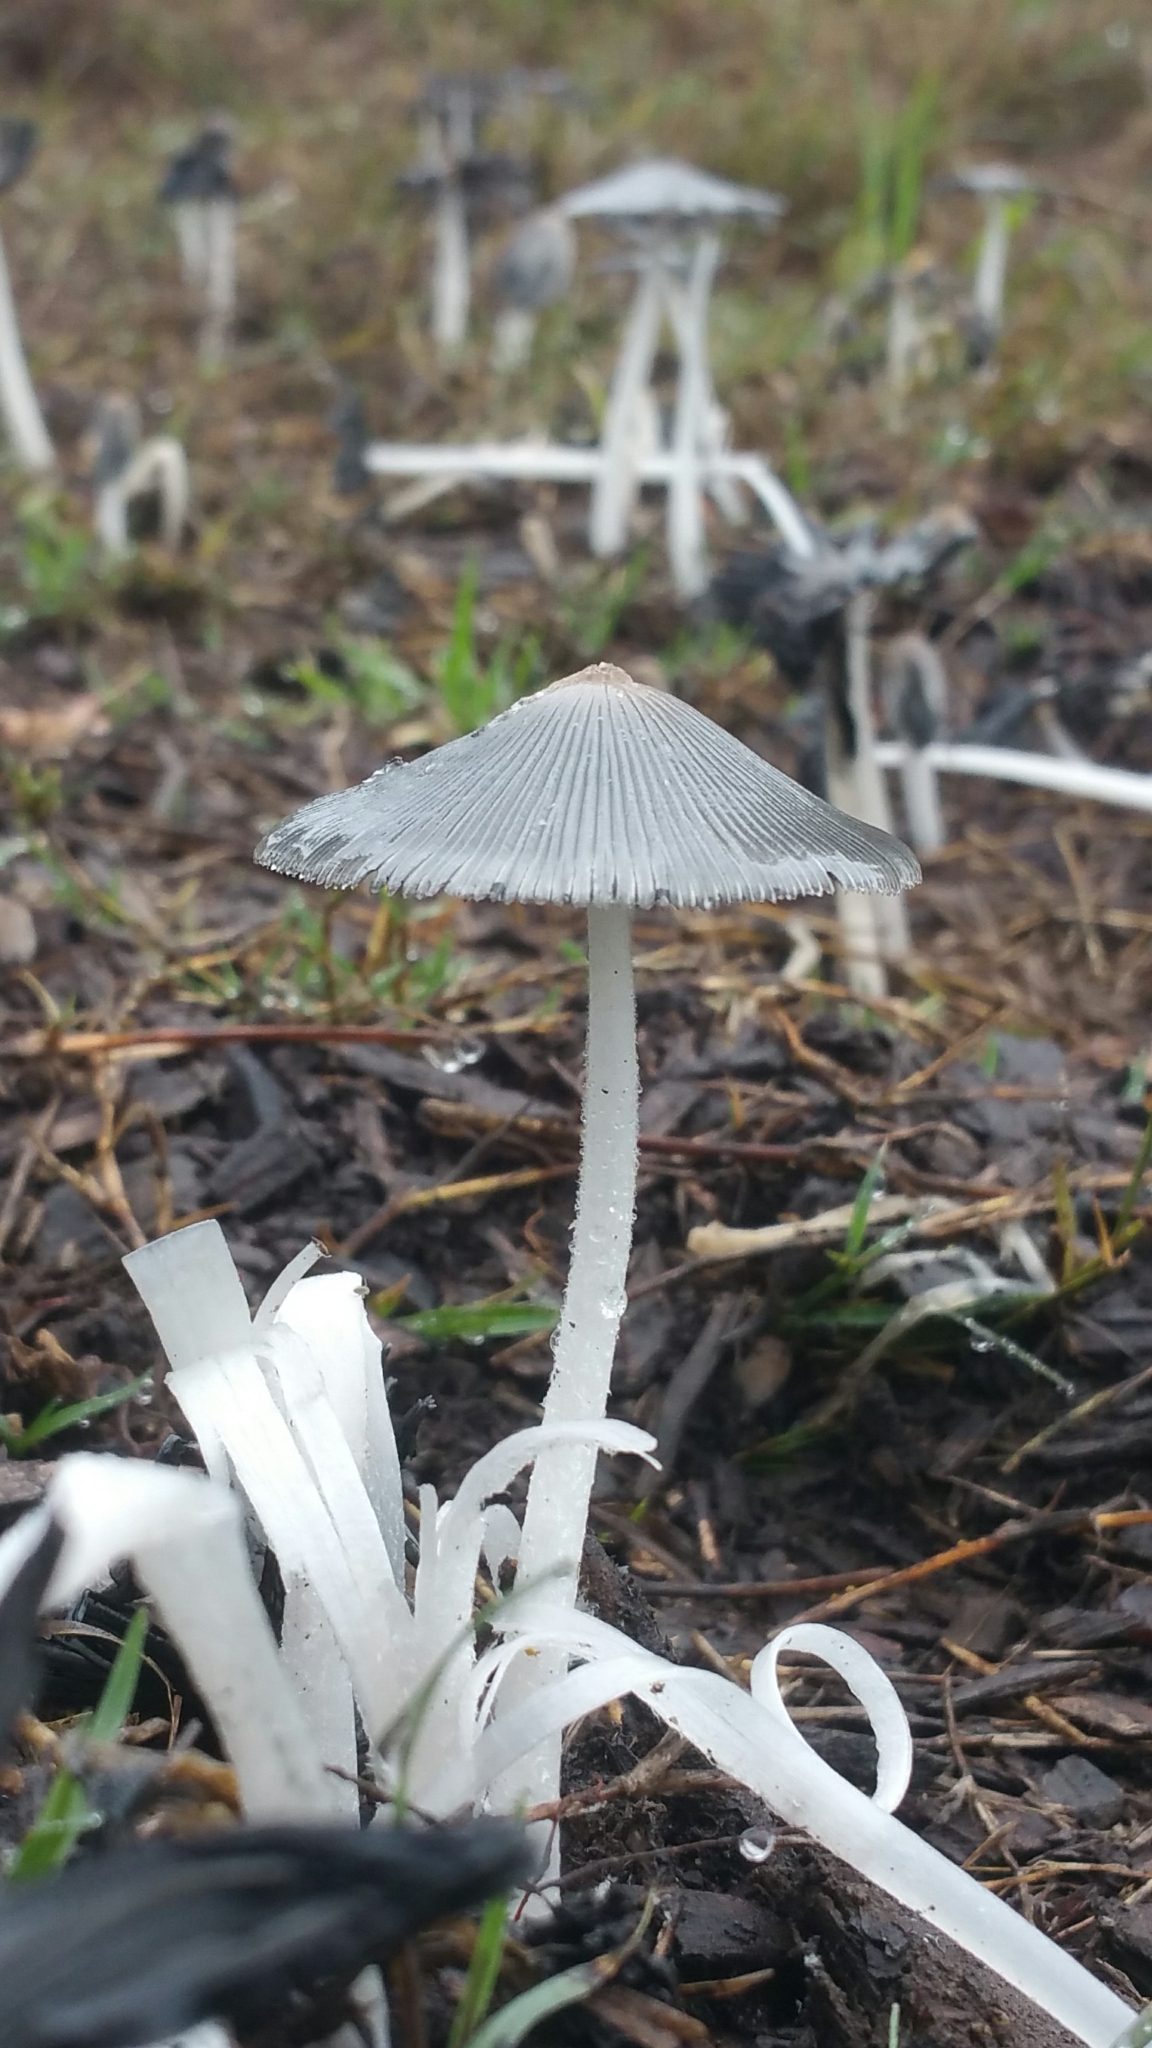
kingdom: Fungi
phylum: Basidiomycota
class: Agaricomycetes
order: Agaricales
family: Psathyrellaceae
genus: Coprinopsis
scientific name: Coprinopsis lagopus
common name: Hare'sfoot inkcap
